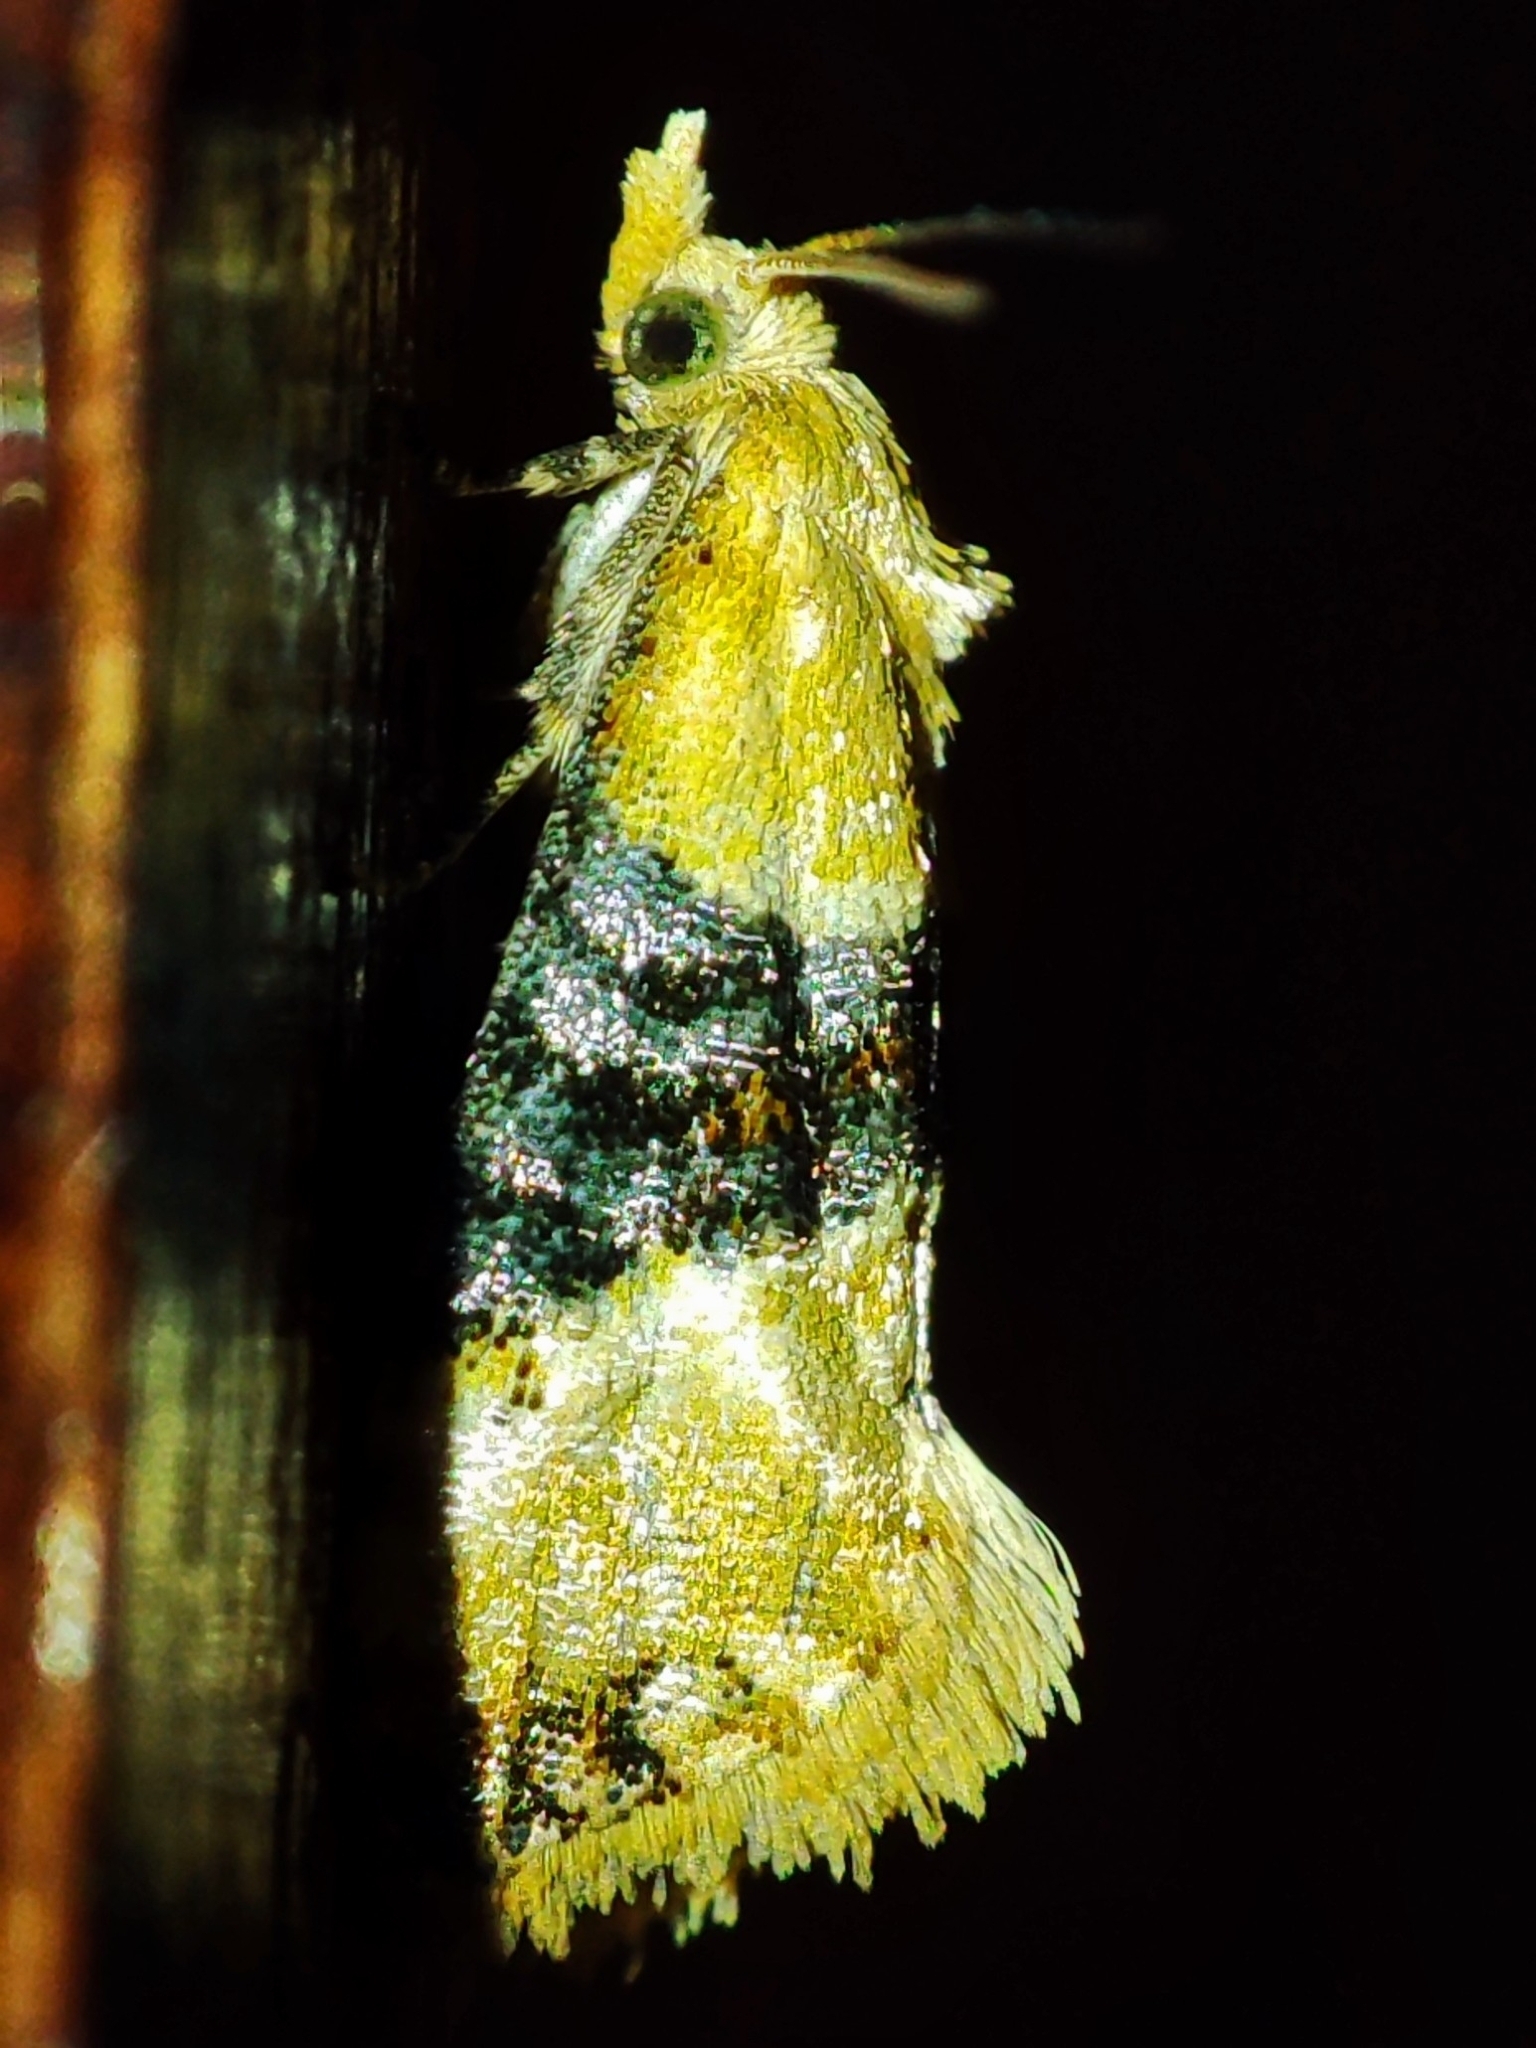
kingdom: Animalia
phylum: Arthropoda
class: Insecta
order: Lepidoptera
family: Tortricidae
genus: Eupoecilia
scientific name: Eupoecilia ambiguella
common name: Vine moth
